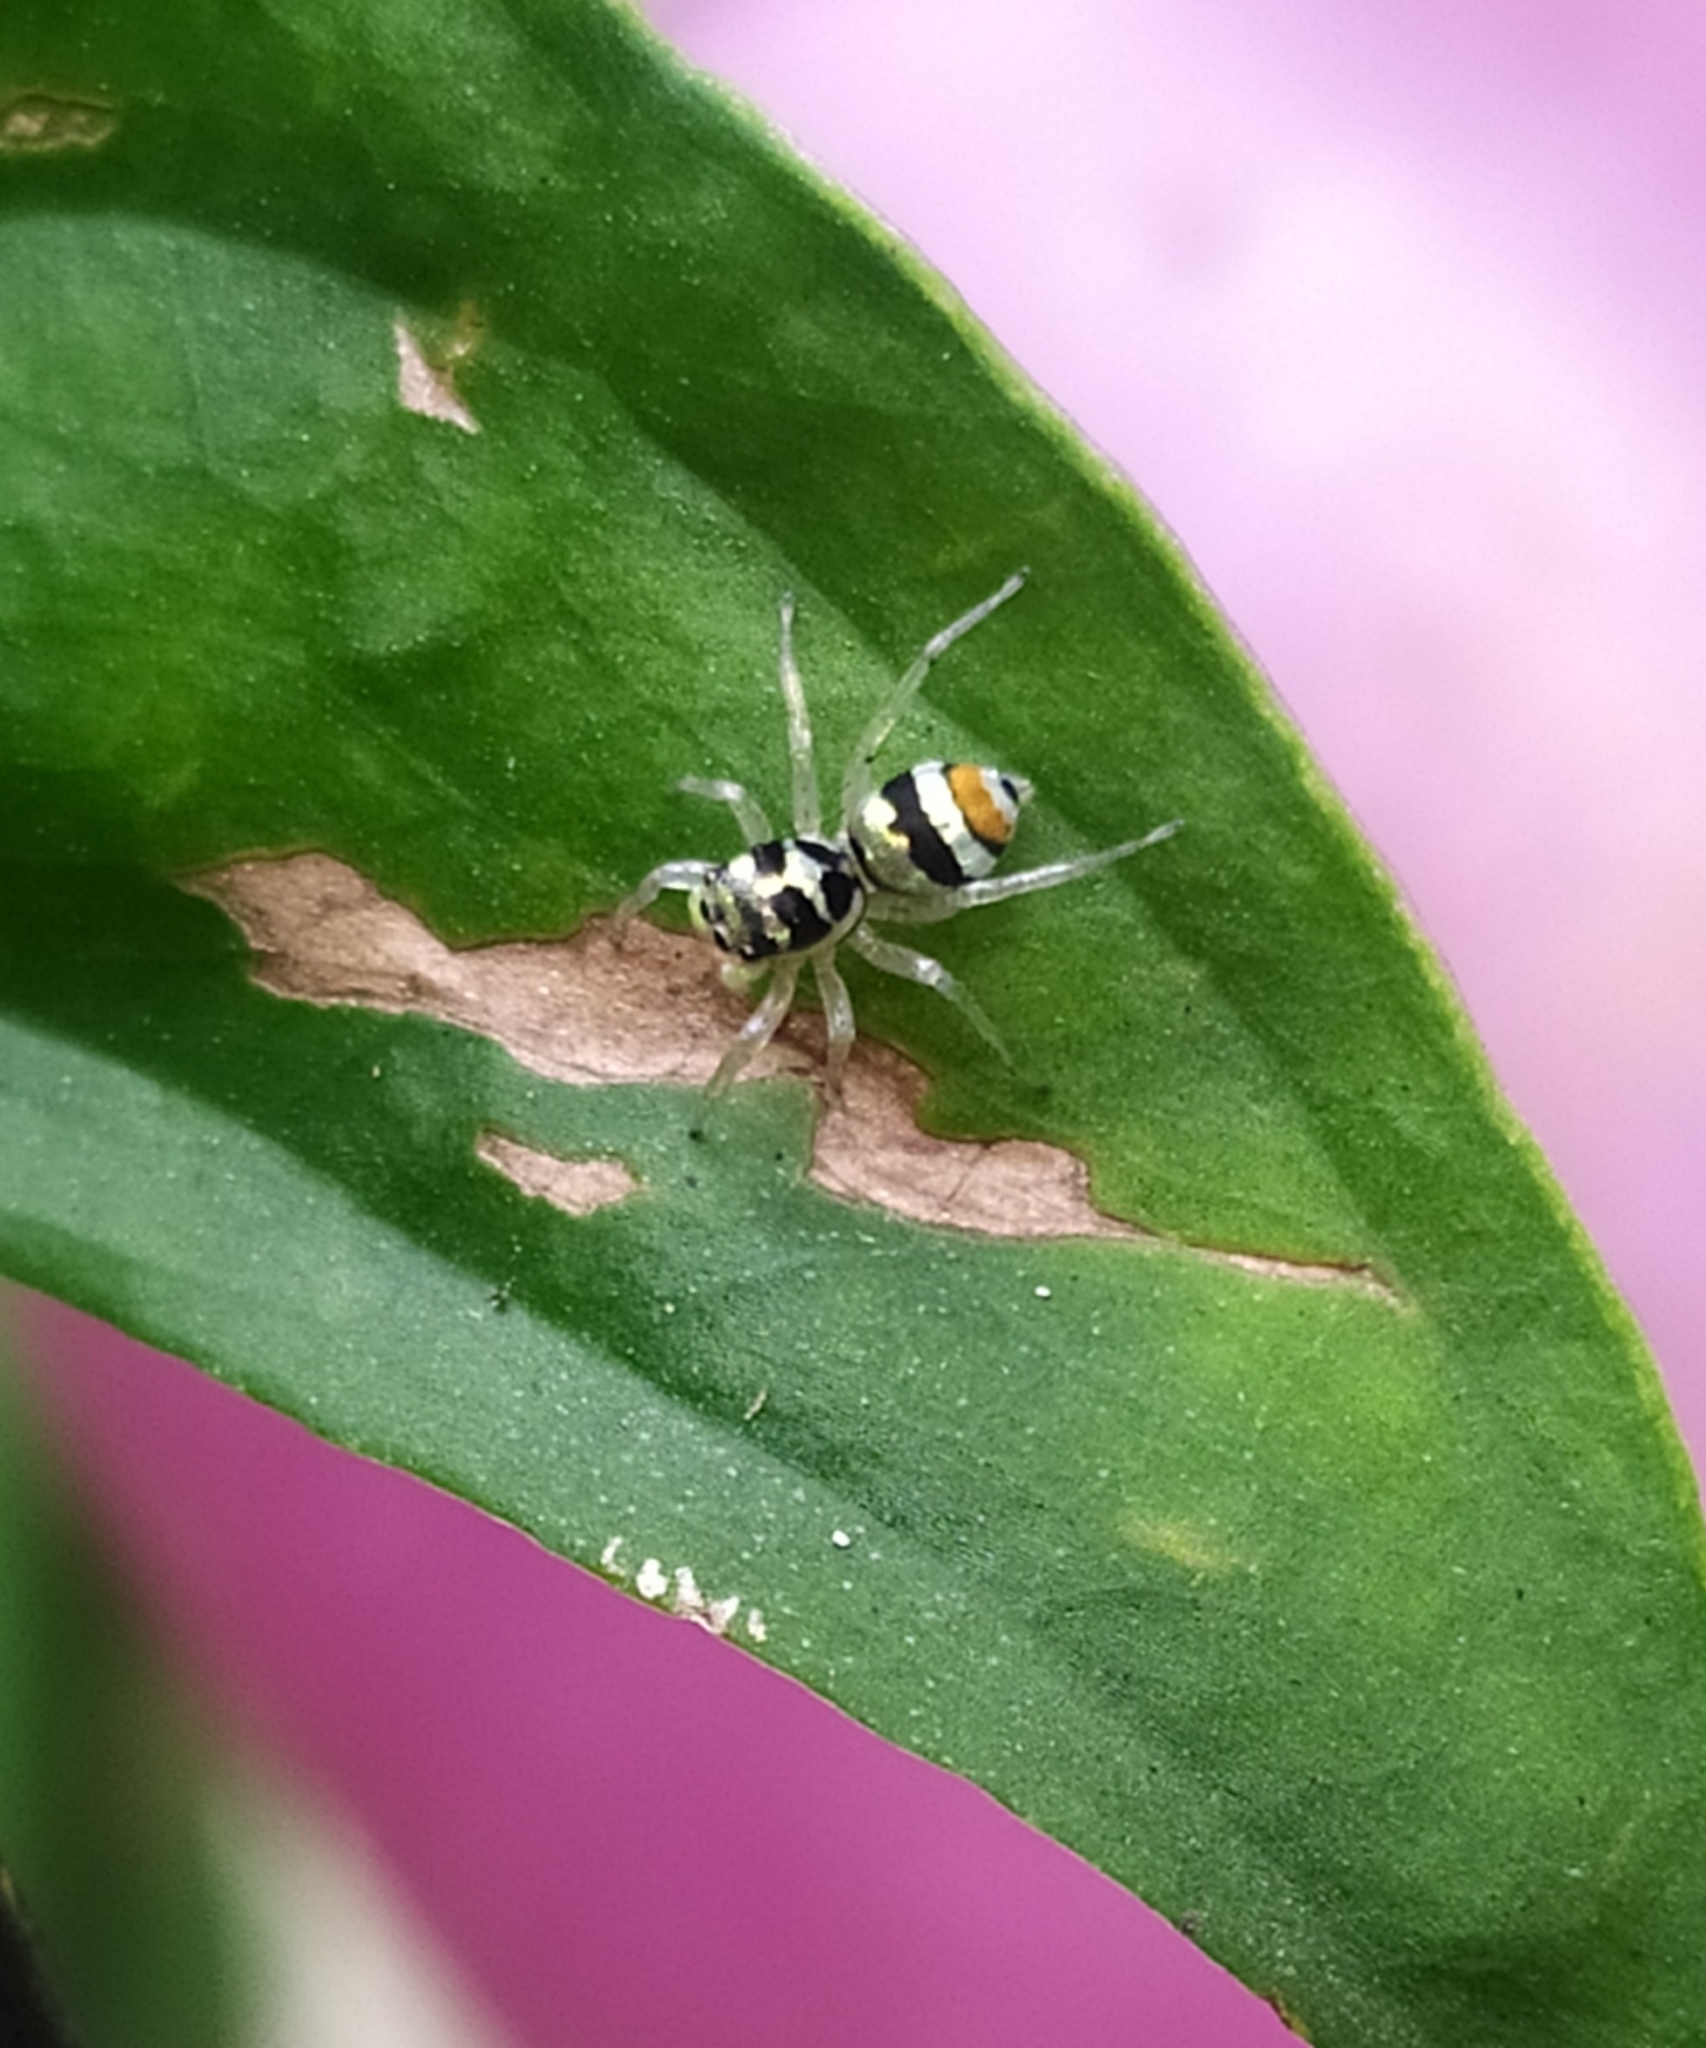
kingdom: Animalia
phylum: Arthropoda
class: Arachnida
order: Araneae
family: Salticidae
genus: Phintella
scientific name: Phintella vittata
